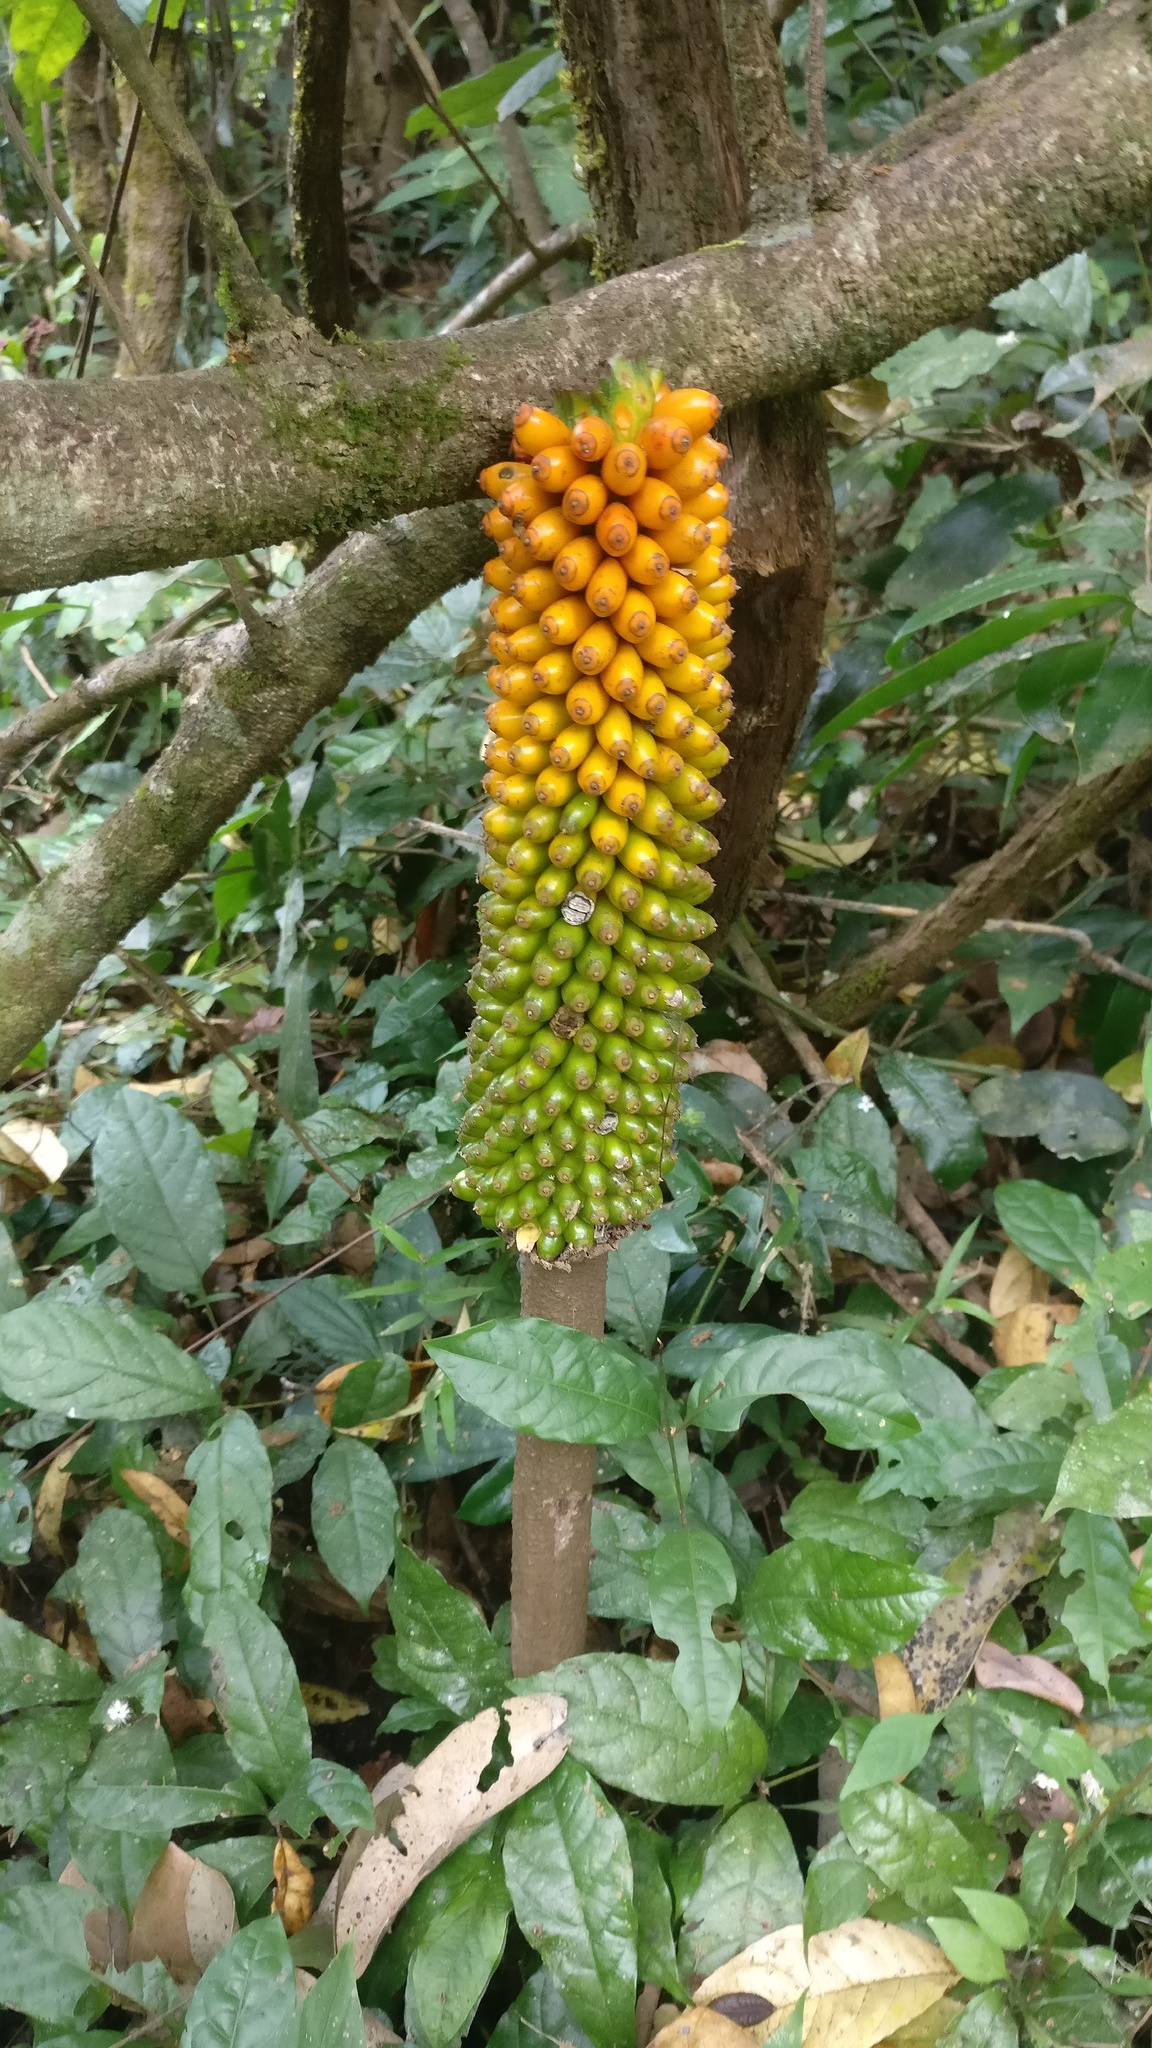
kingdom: Plantae
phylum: Tracheophyta
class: Liliopsida
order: Alismatales
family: Araceae
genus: Amorphophallus
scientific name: Amorphophallus sylvaticus
